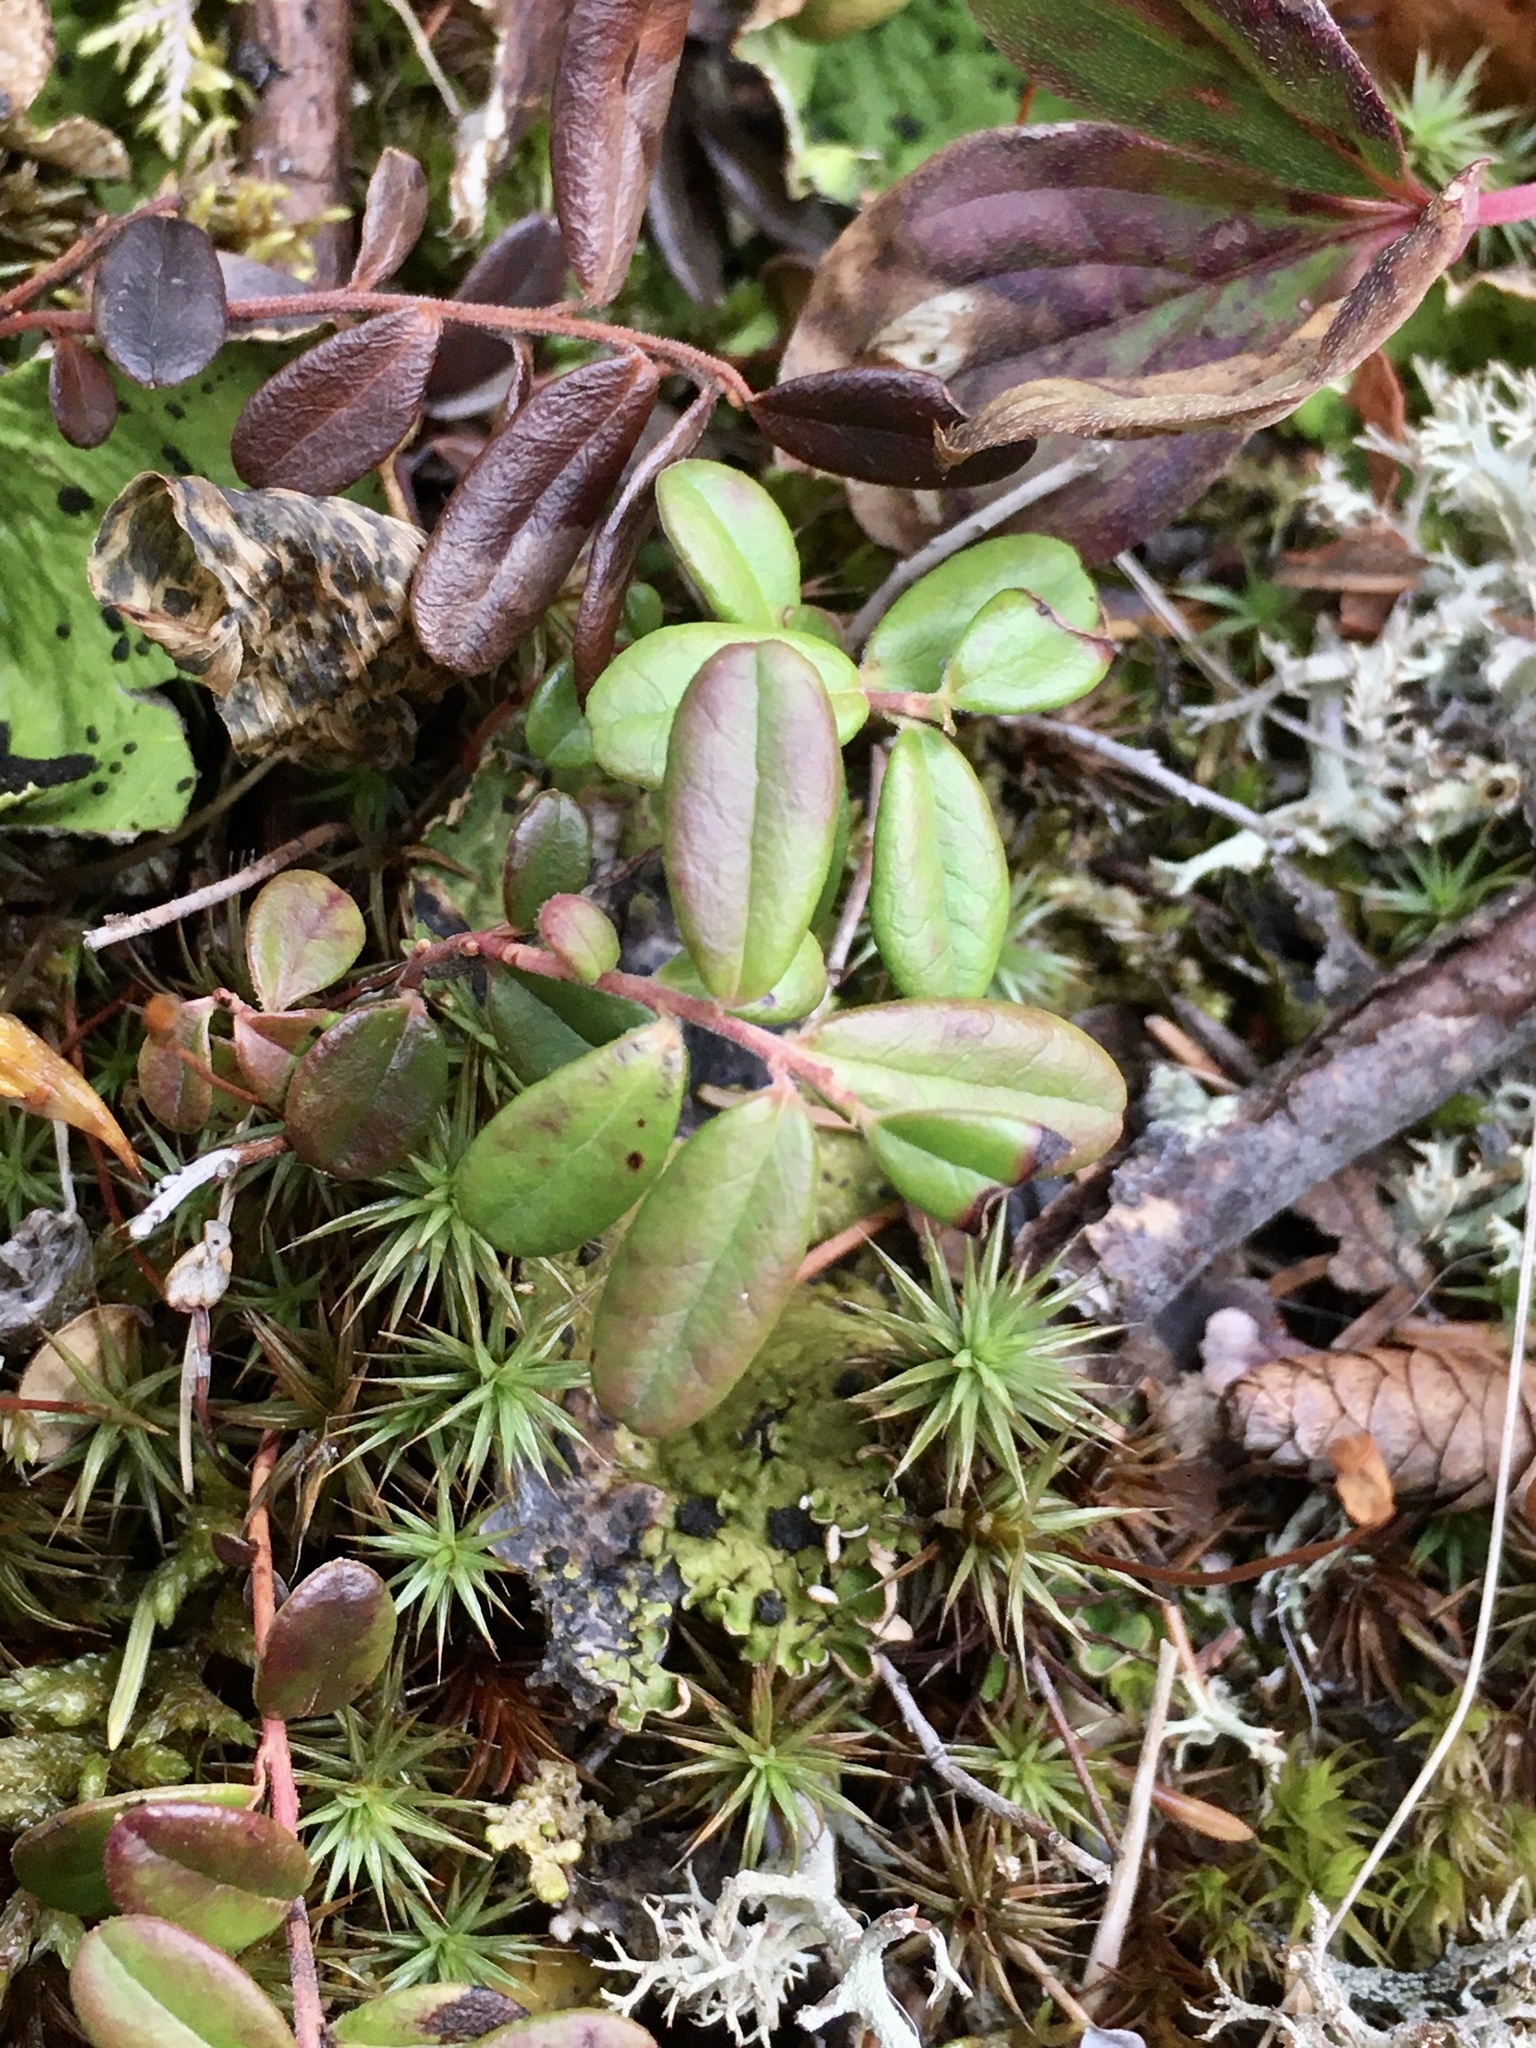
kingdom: Plantae
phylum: Tracheophyta
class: Magnoliopsida
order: Ericales
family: Ericaceae
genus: Vaccinium
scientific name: Vaccinium vitis-idaea
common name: Cowberry
